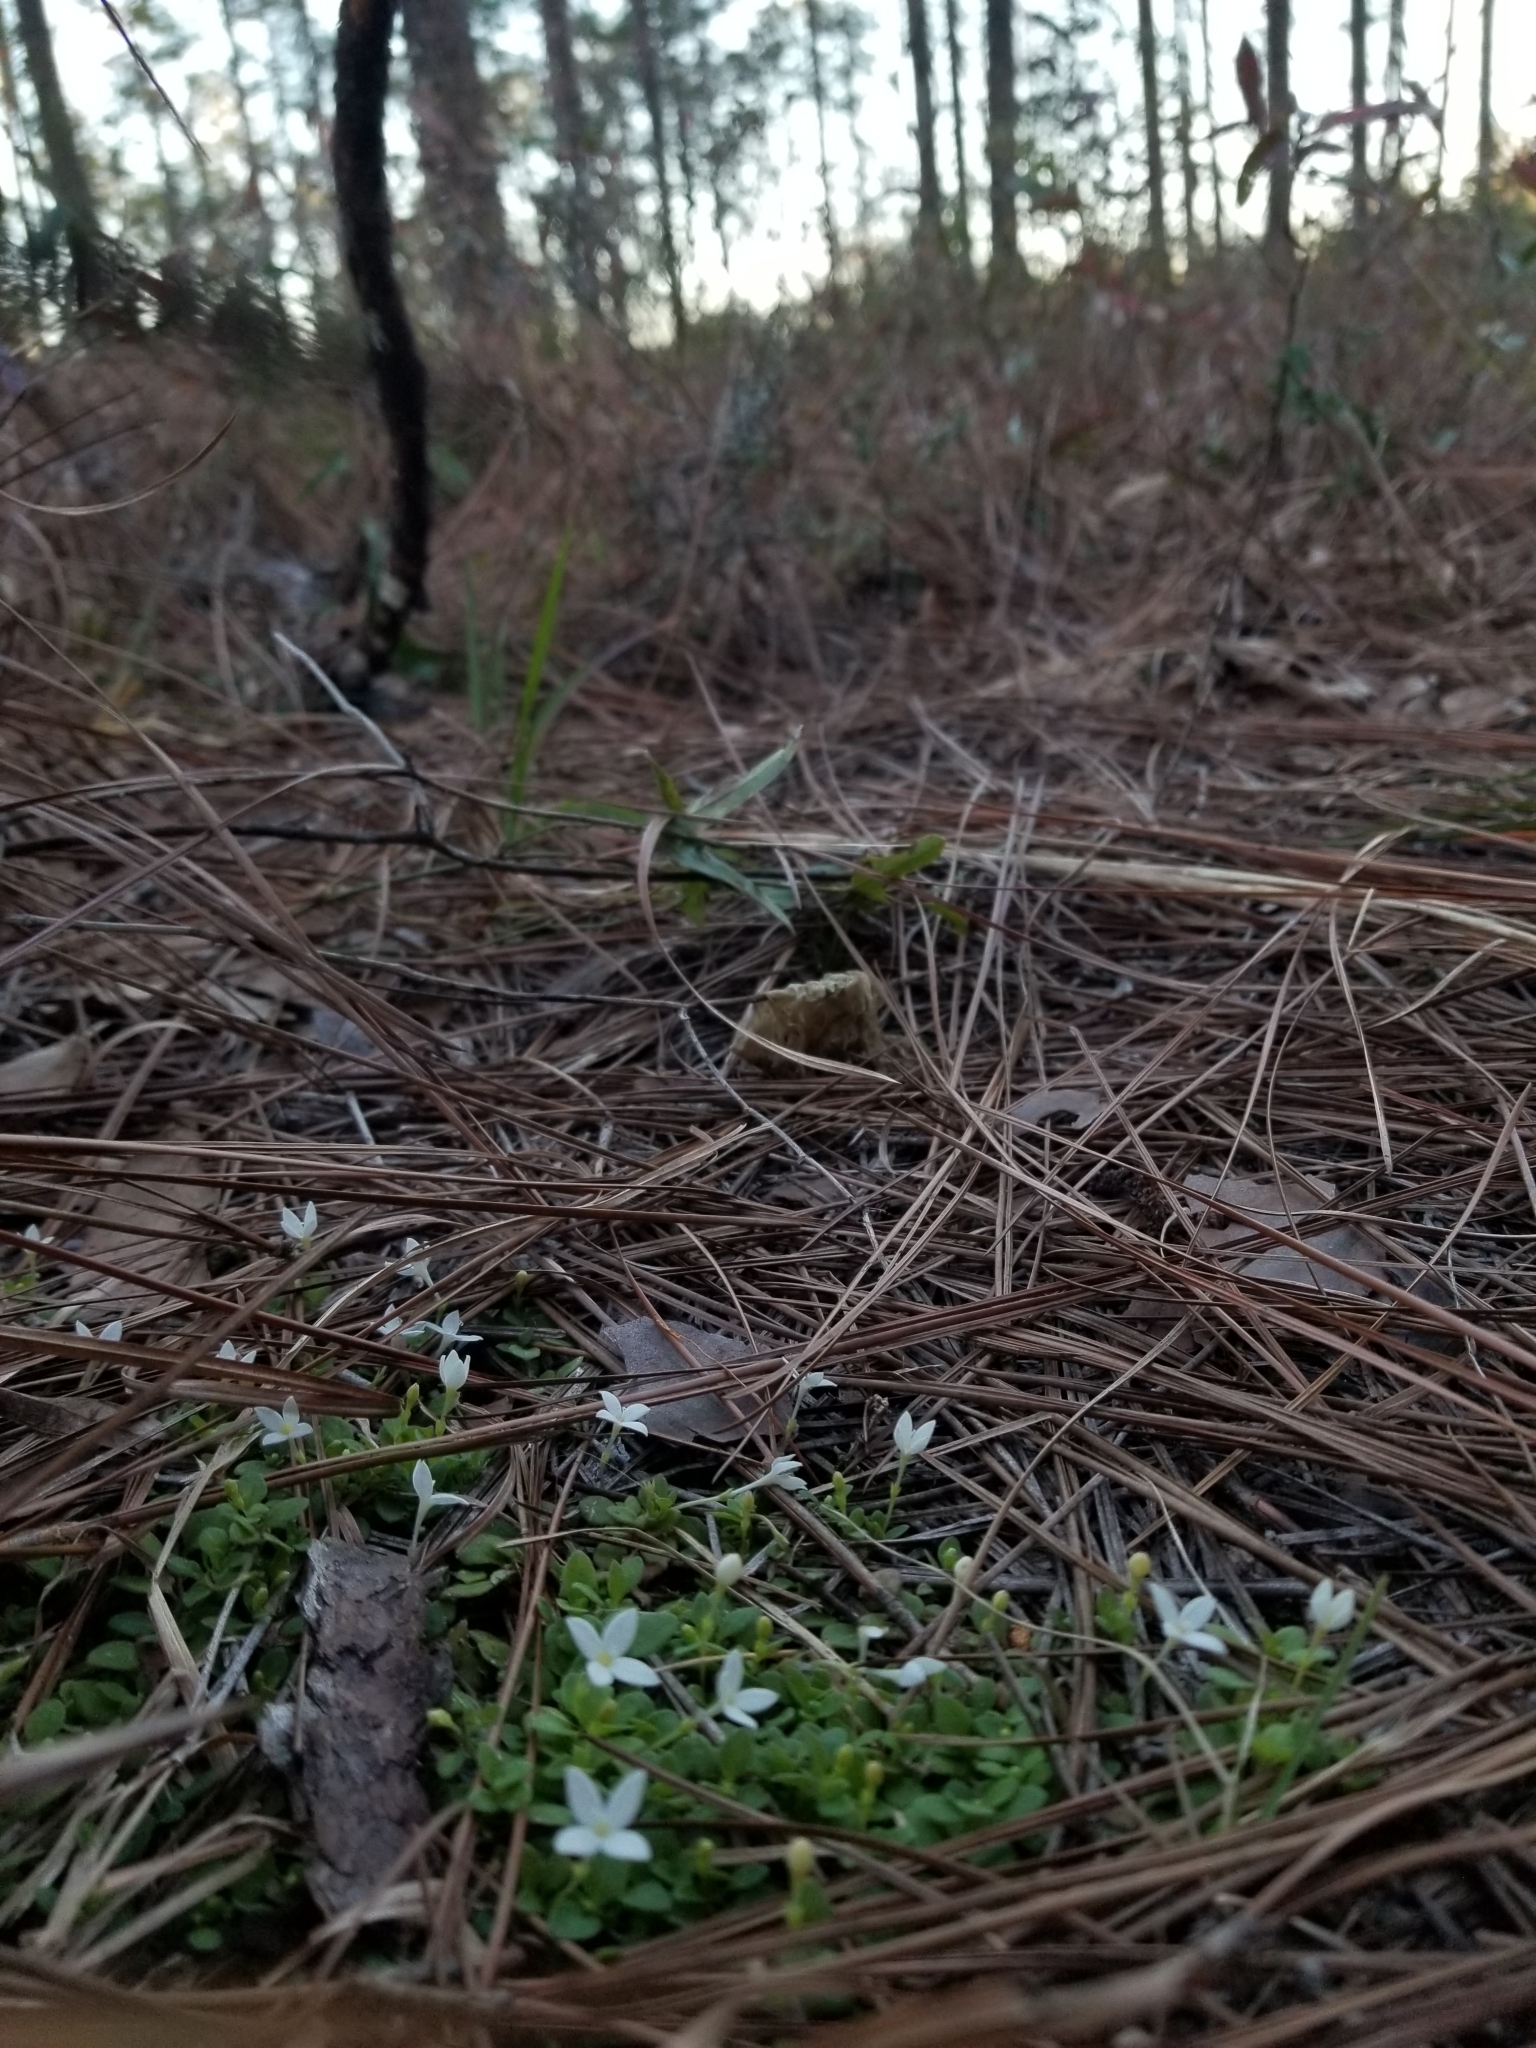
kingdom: Plantae
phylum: Tracheophyta
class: Magnoliopsida
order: Gentianales
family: Rubiaceae
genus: Houstonia
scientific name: Houstonia procumbens
